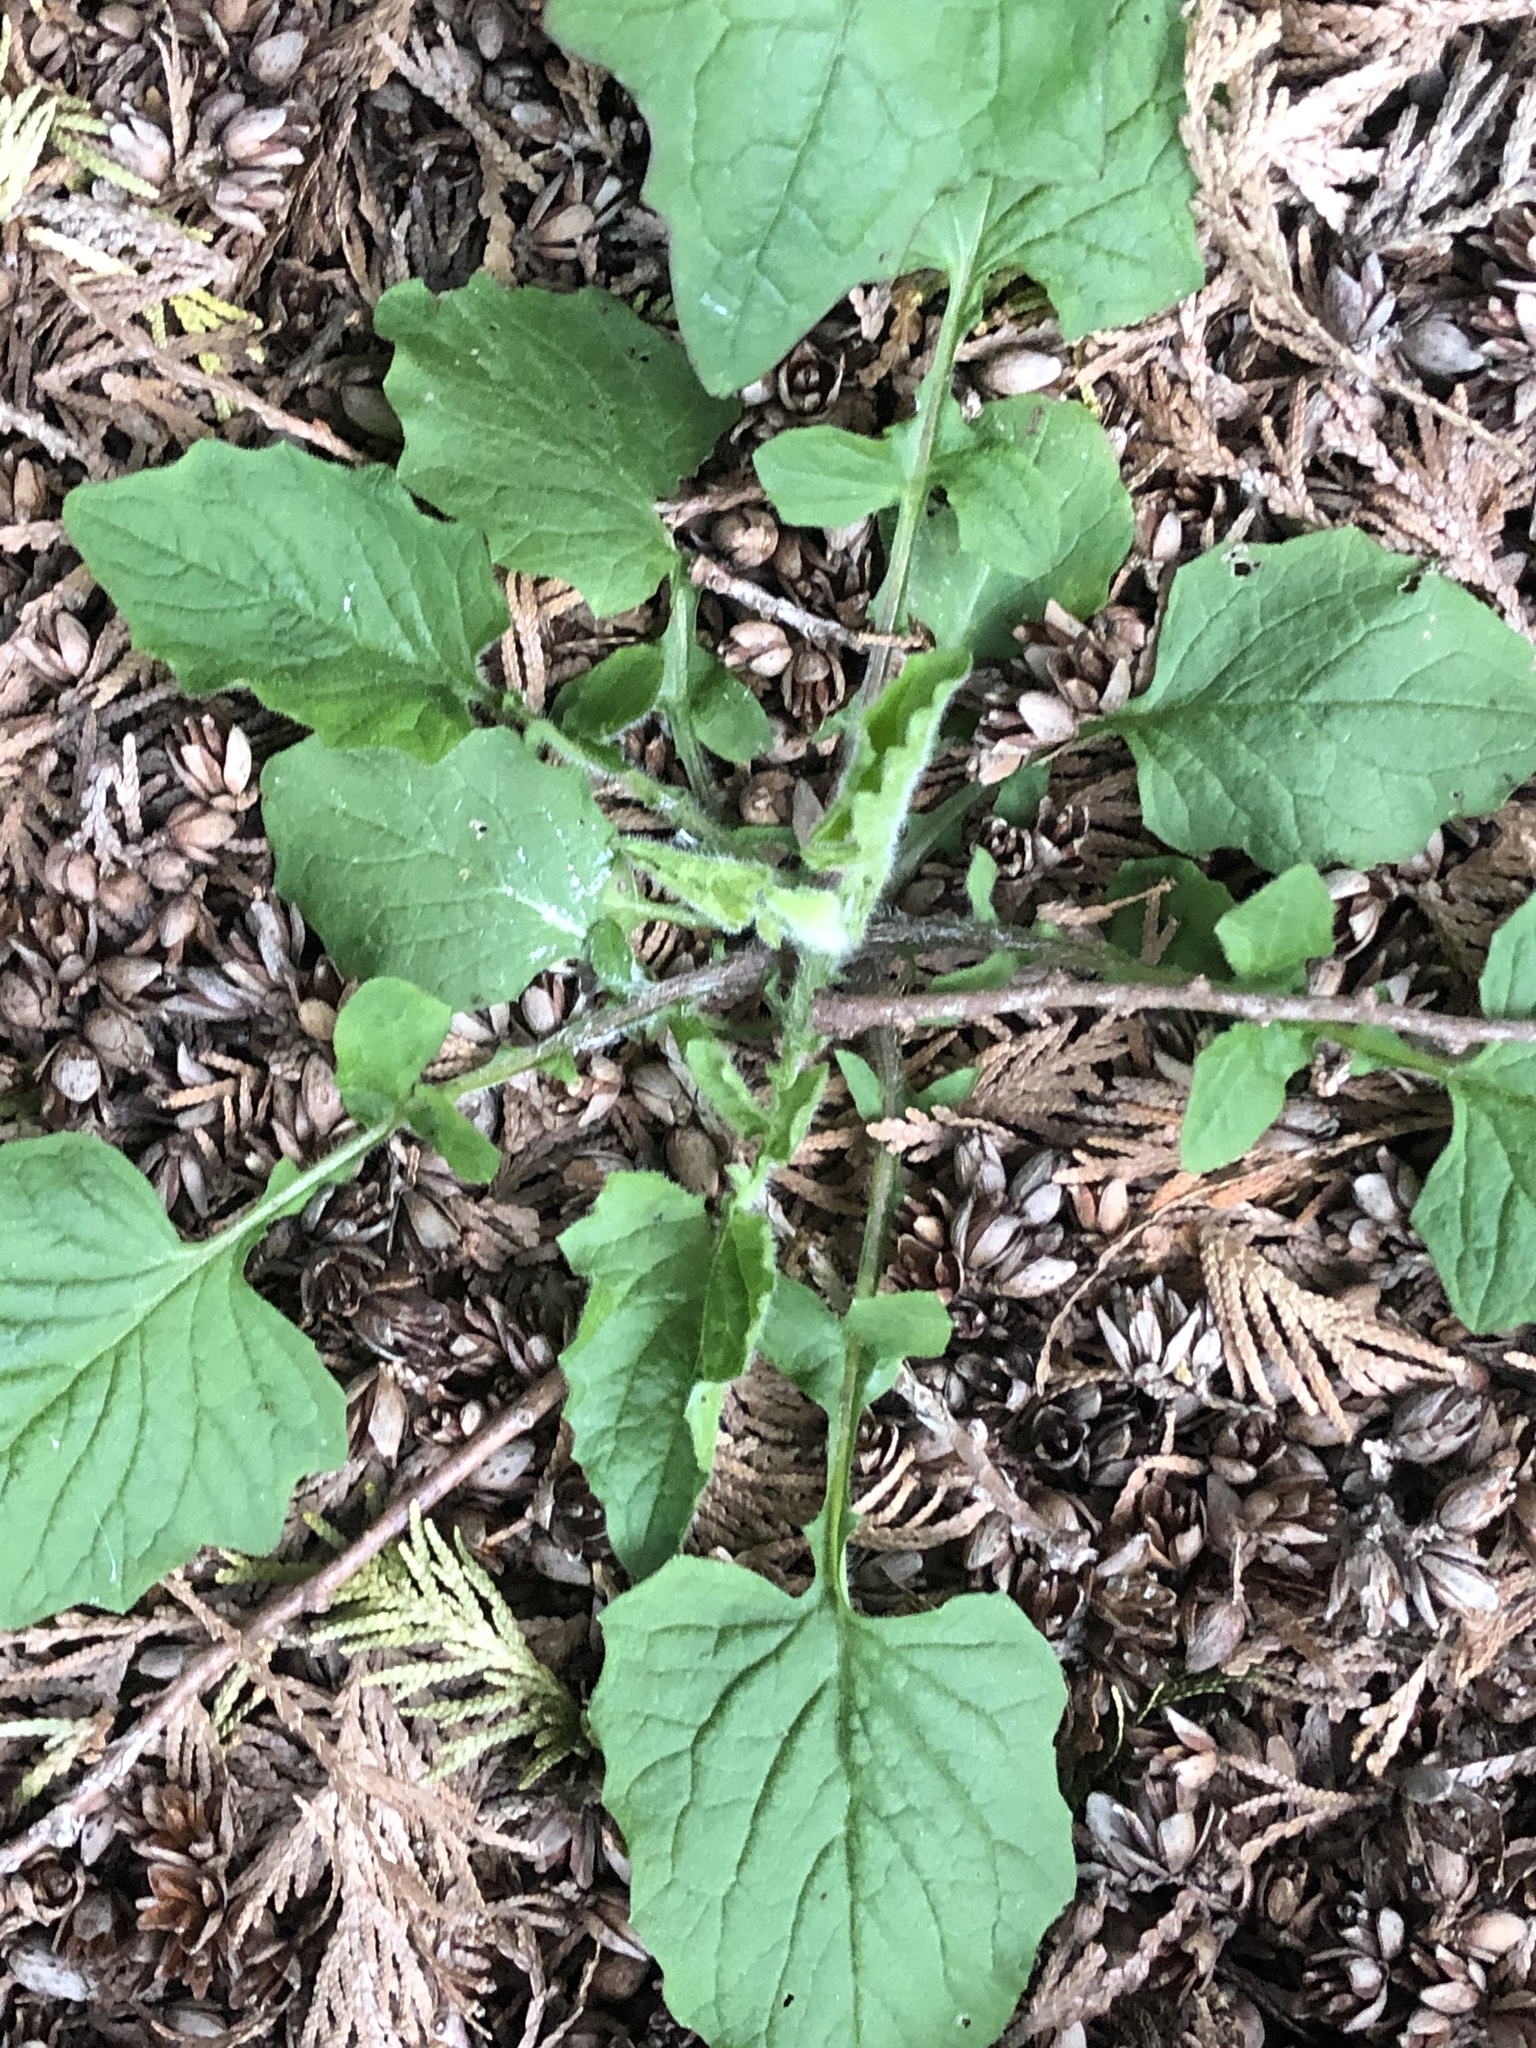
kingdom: Plantae
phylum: Tracheophyta
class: Magnoliopsida
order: Asterales
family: Asteraceae
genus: Lapsana
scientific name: Lapsana communis
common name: Nipplewort
